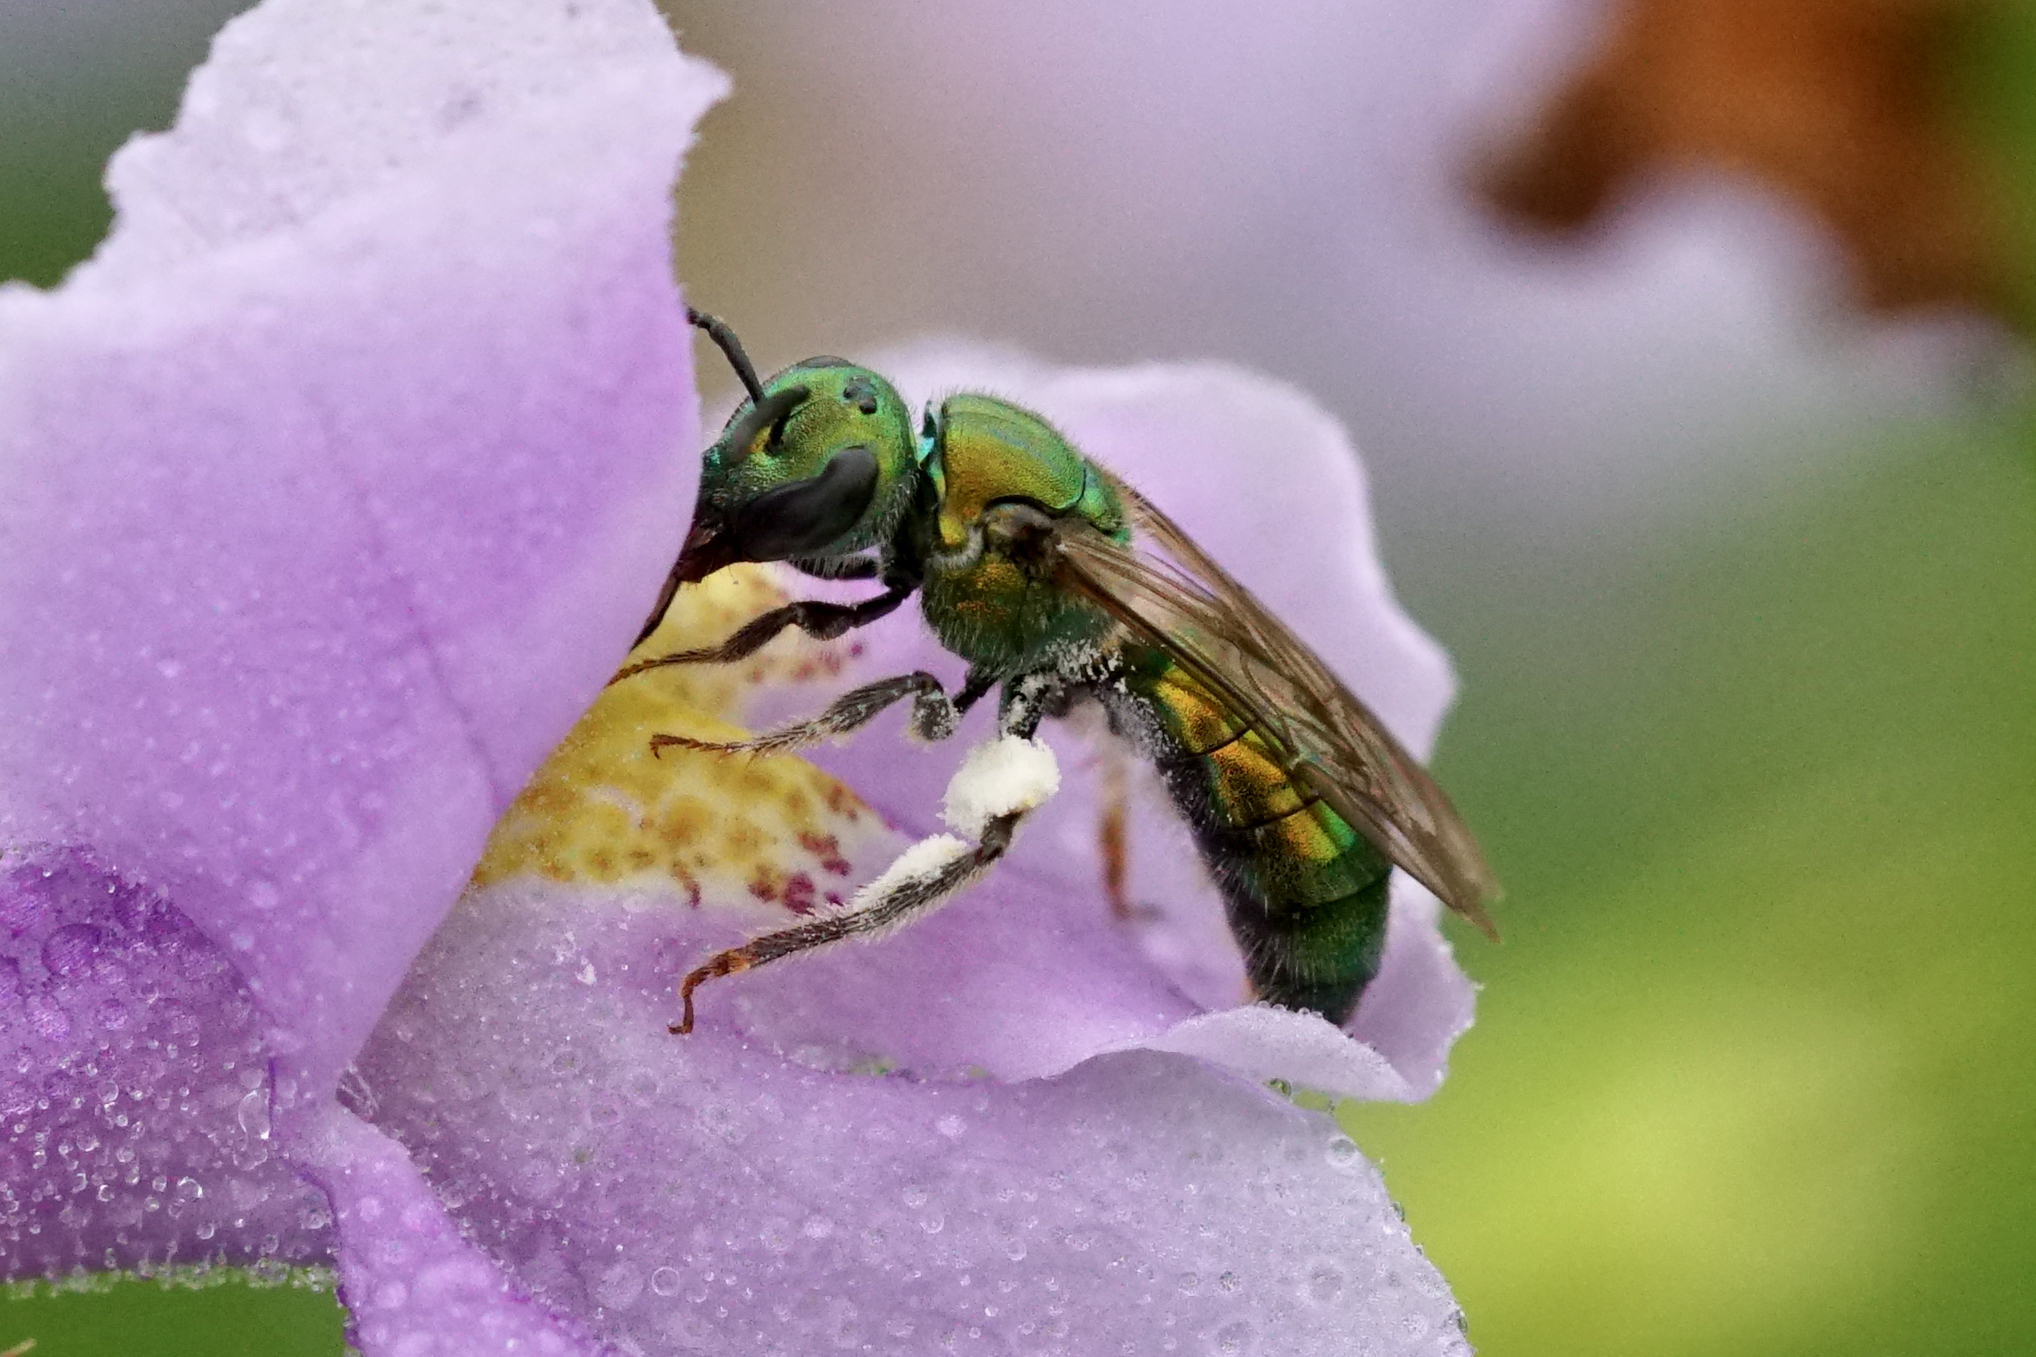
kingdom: Animalia
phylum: Arthropoda
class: Insecta
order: Hymenoptera
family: Halictidae
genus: Augochlora
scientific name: Augochlora pura
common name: Pure green sweat bee
